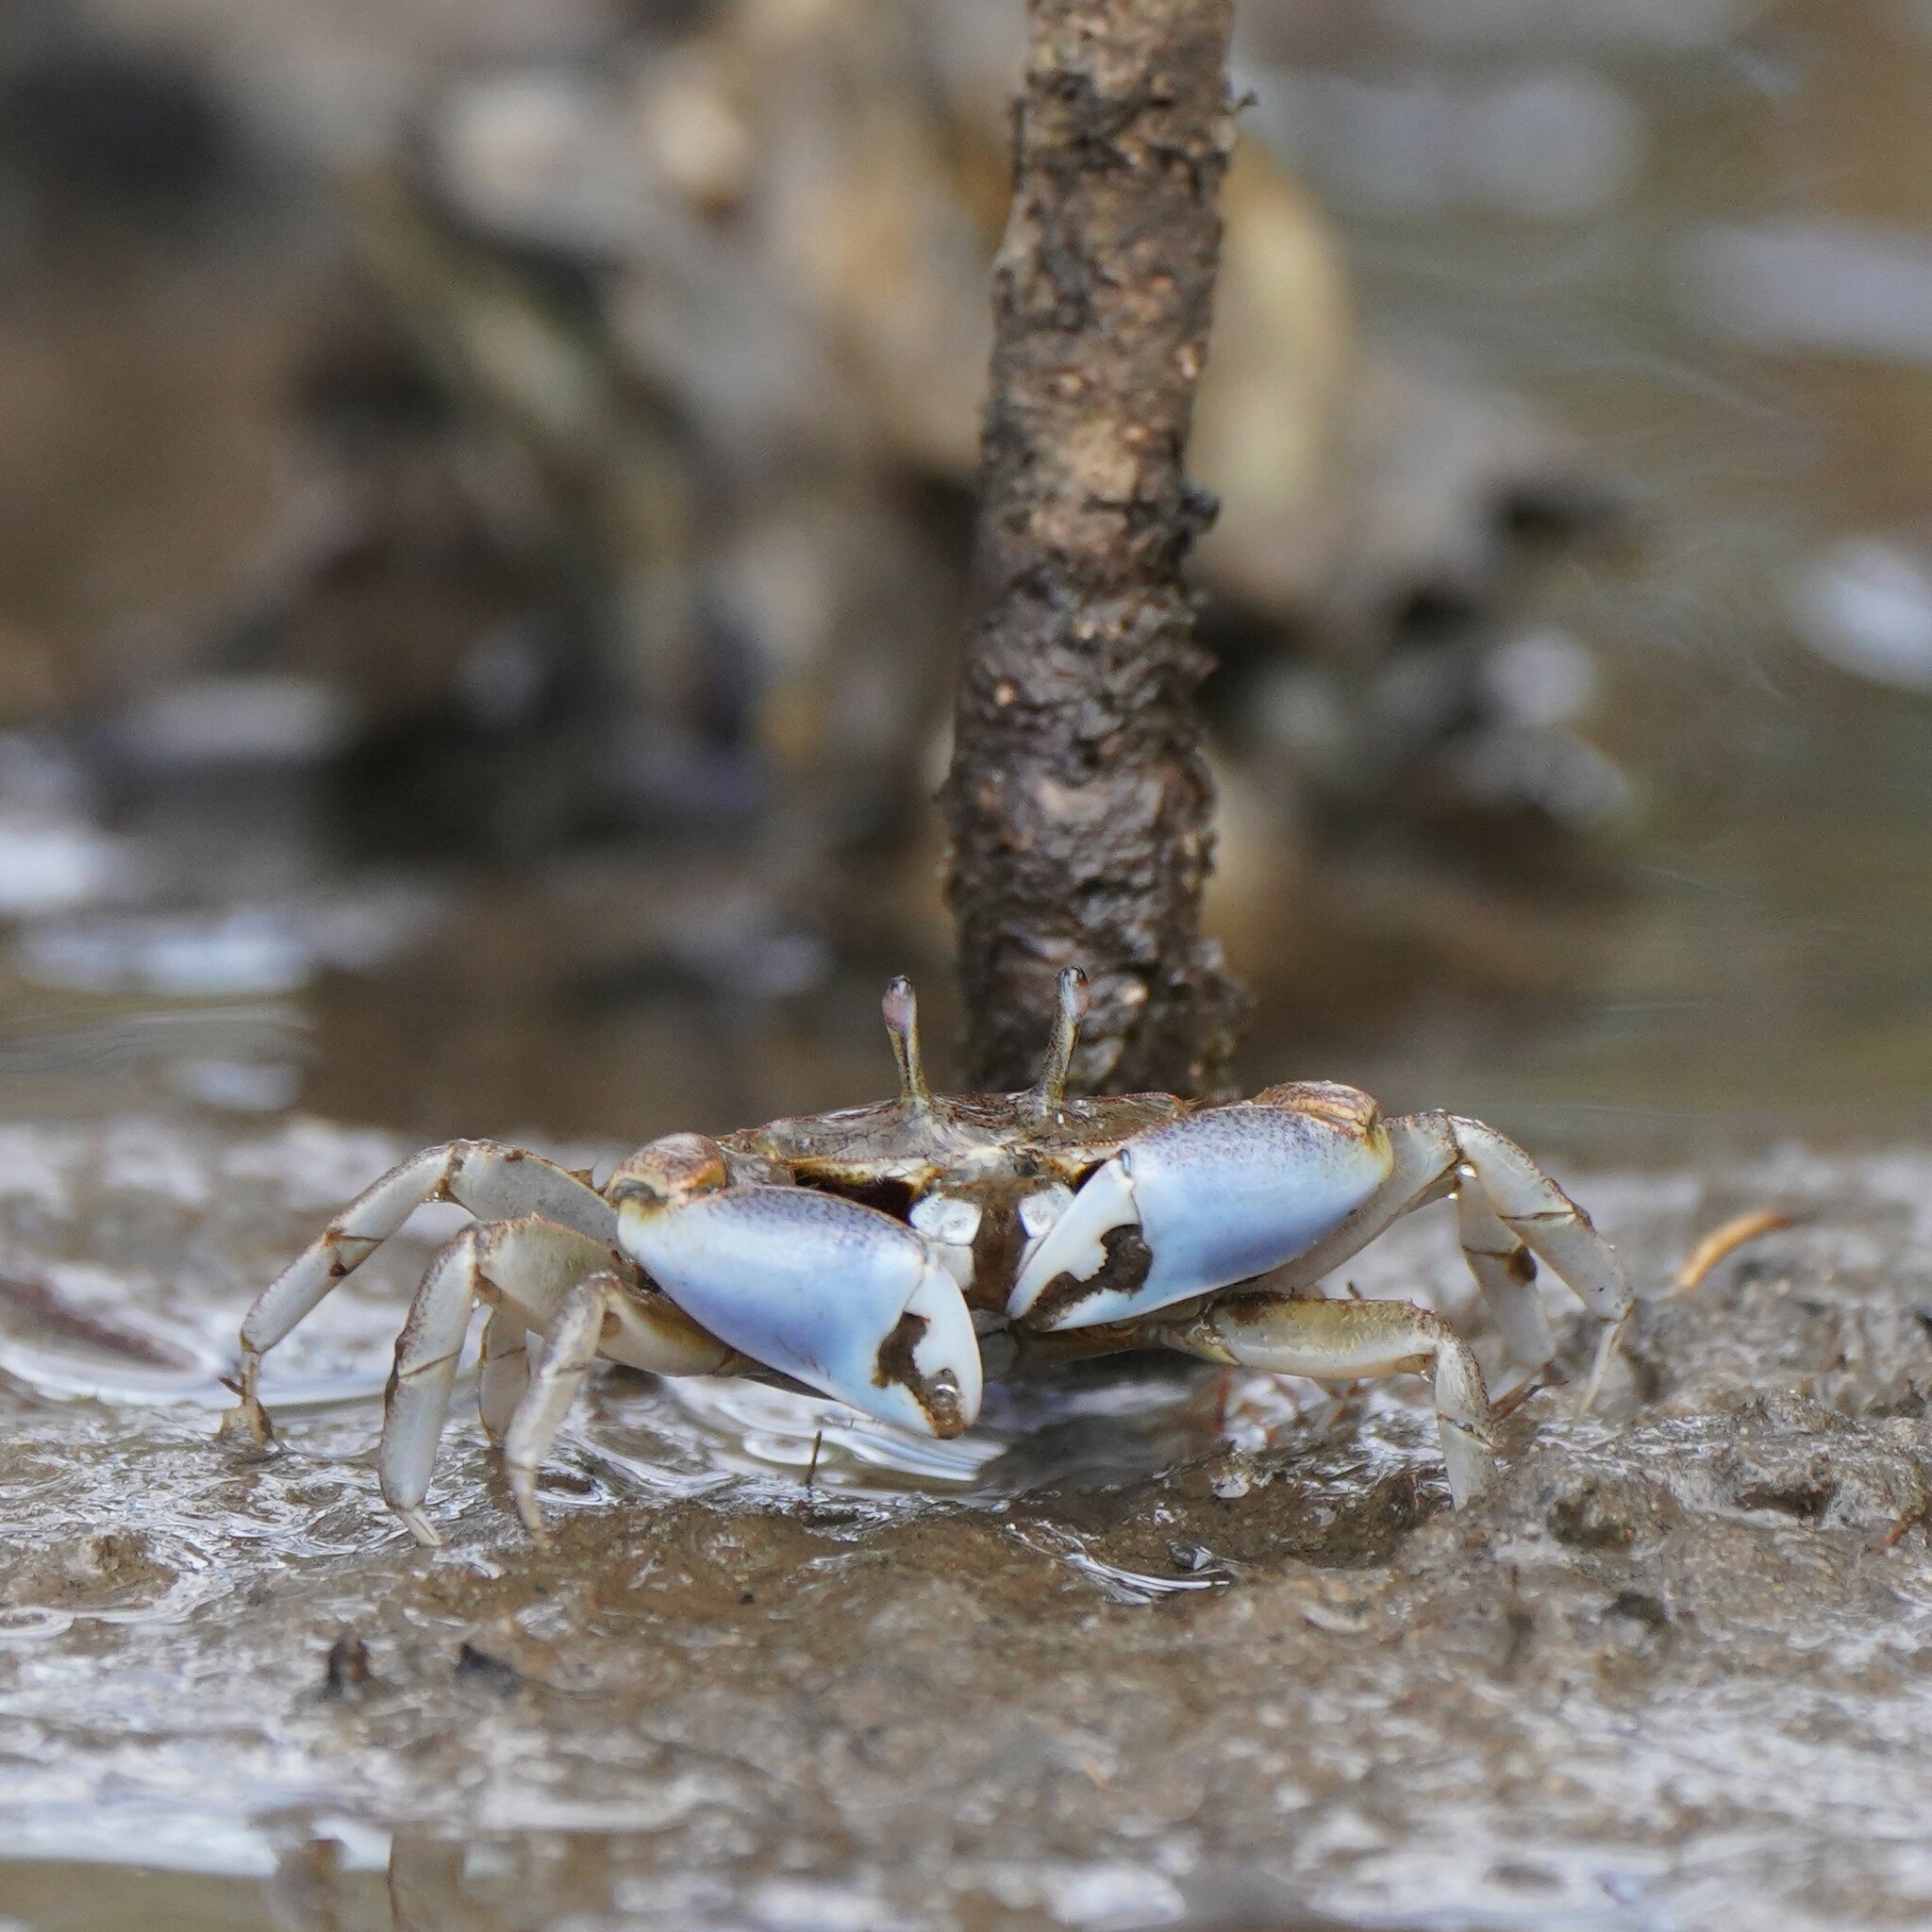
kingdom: Animalia
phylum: Arthropoda
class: Malacostraca
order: Decapoda
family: Macrophthalmidae
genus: Macrophthalmus
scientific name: Macrophthalmus pacificus
